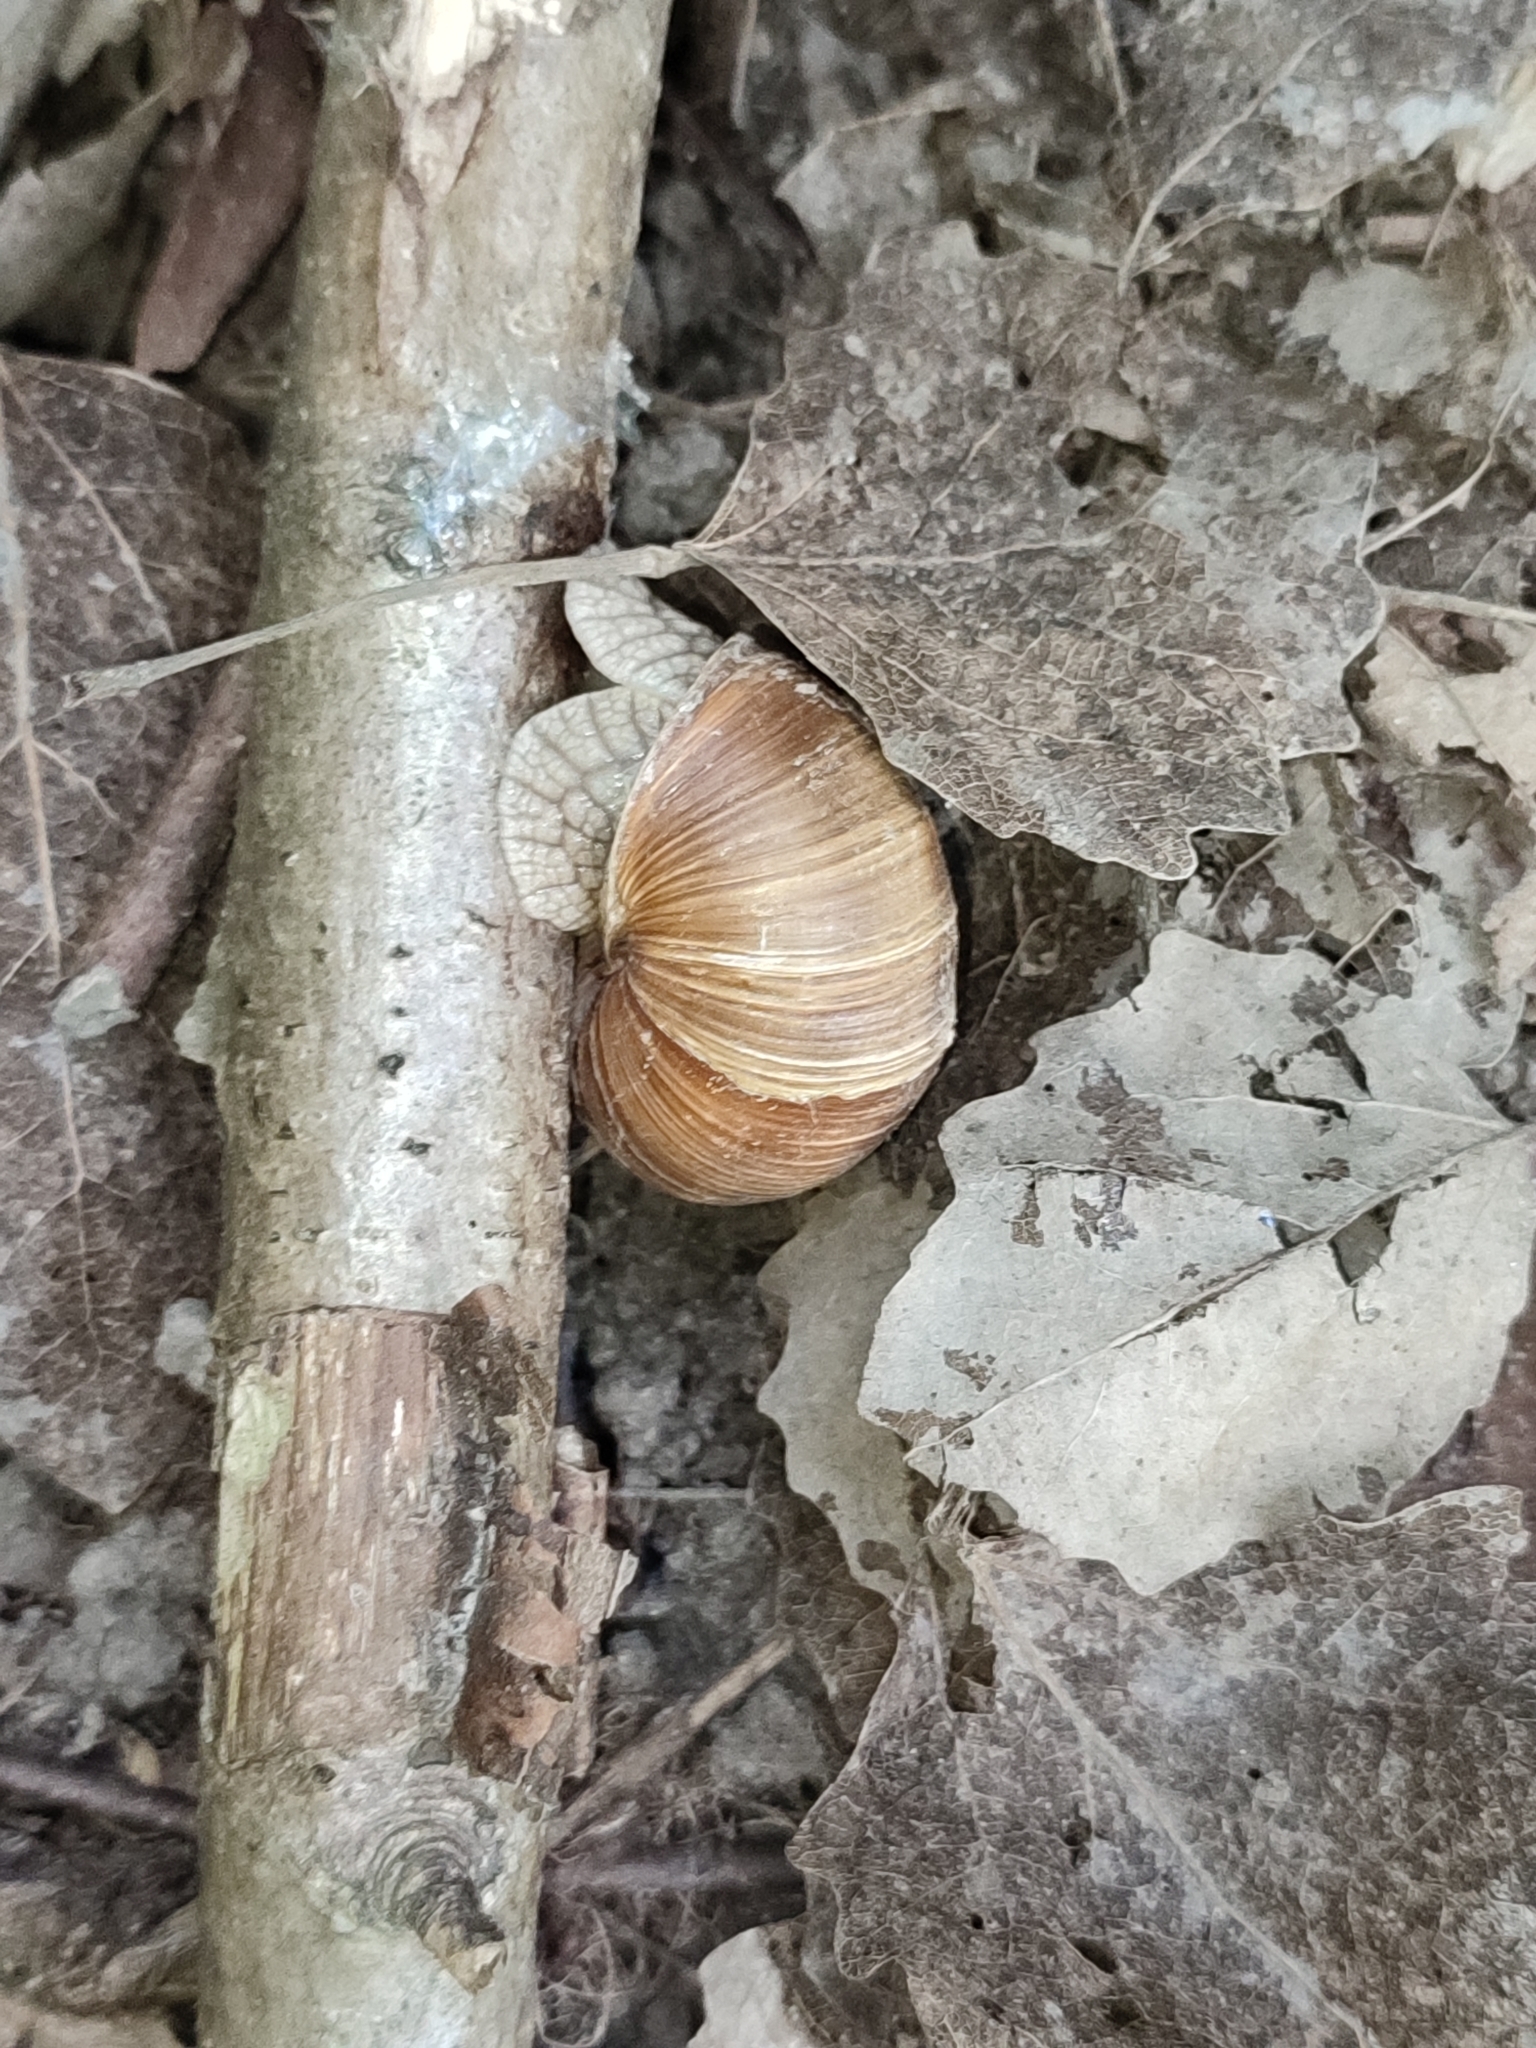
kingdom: Animalia
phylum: Mollusca
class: Gastropoda
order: Stylommatophora
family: Helicidae
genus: Helix
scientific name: Helix pomatia
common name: Roman snail
